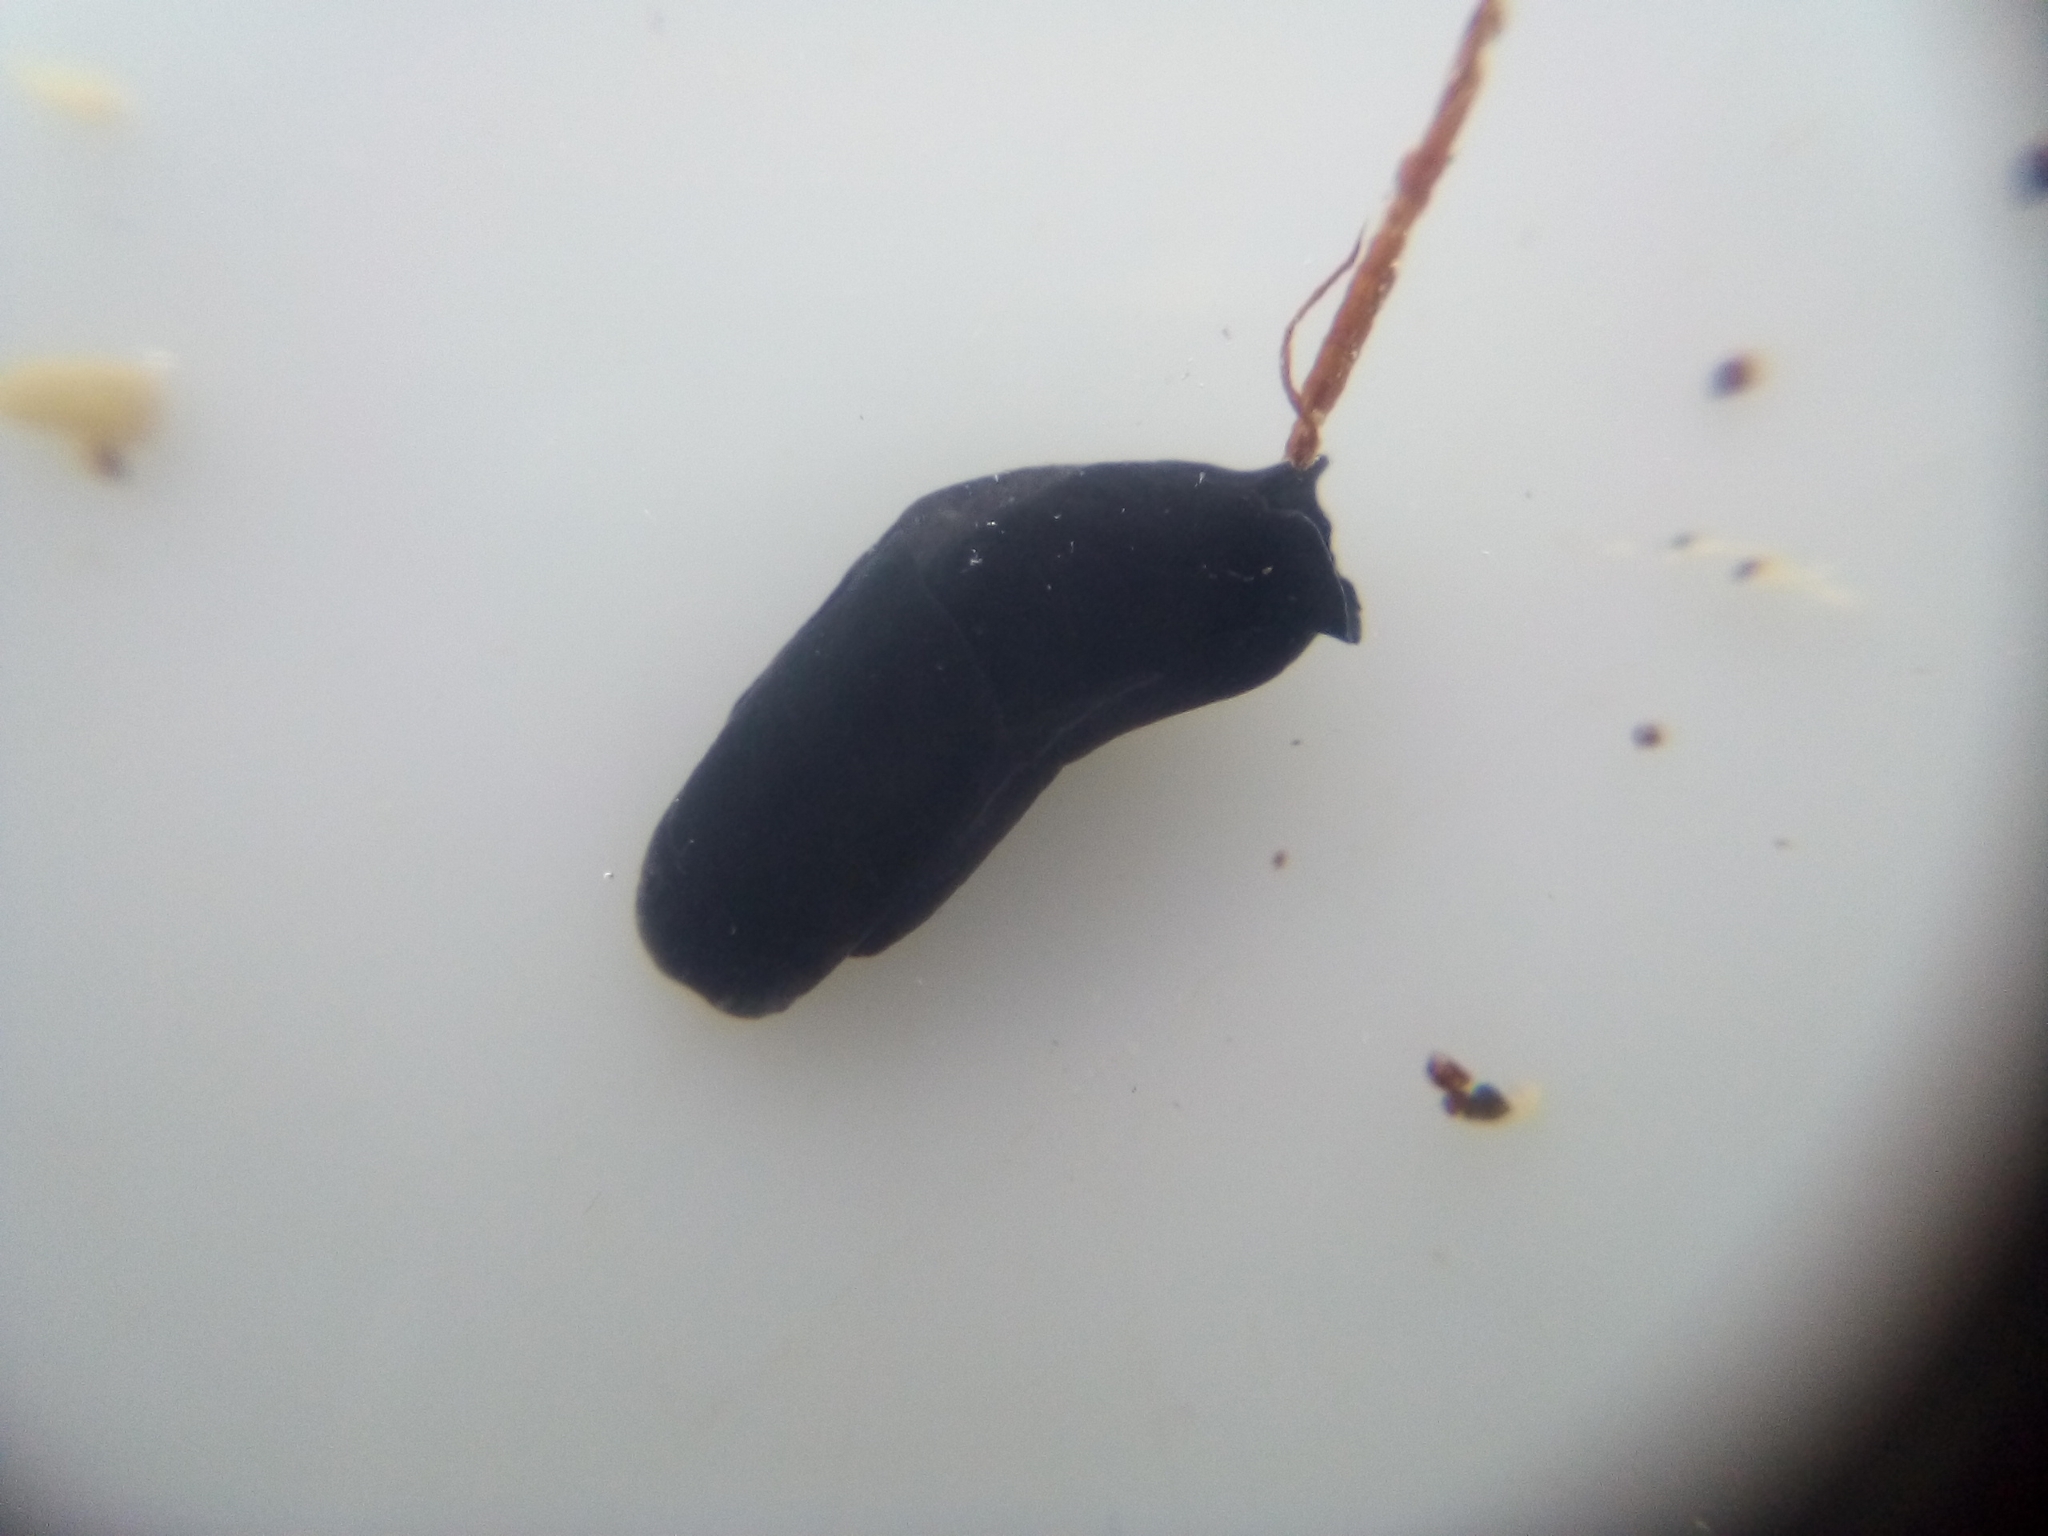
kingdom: Animalia
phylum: Mollusca
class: Gastropoda
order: Cephalaspidea
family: Aglajidae
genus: Melanochlamys
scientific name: Melanochlamys cylindrica
